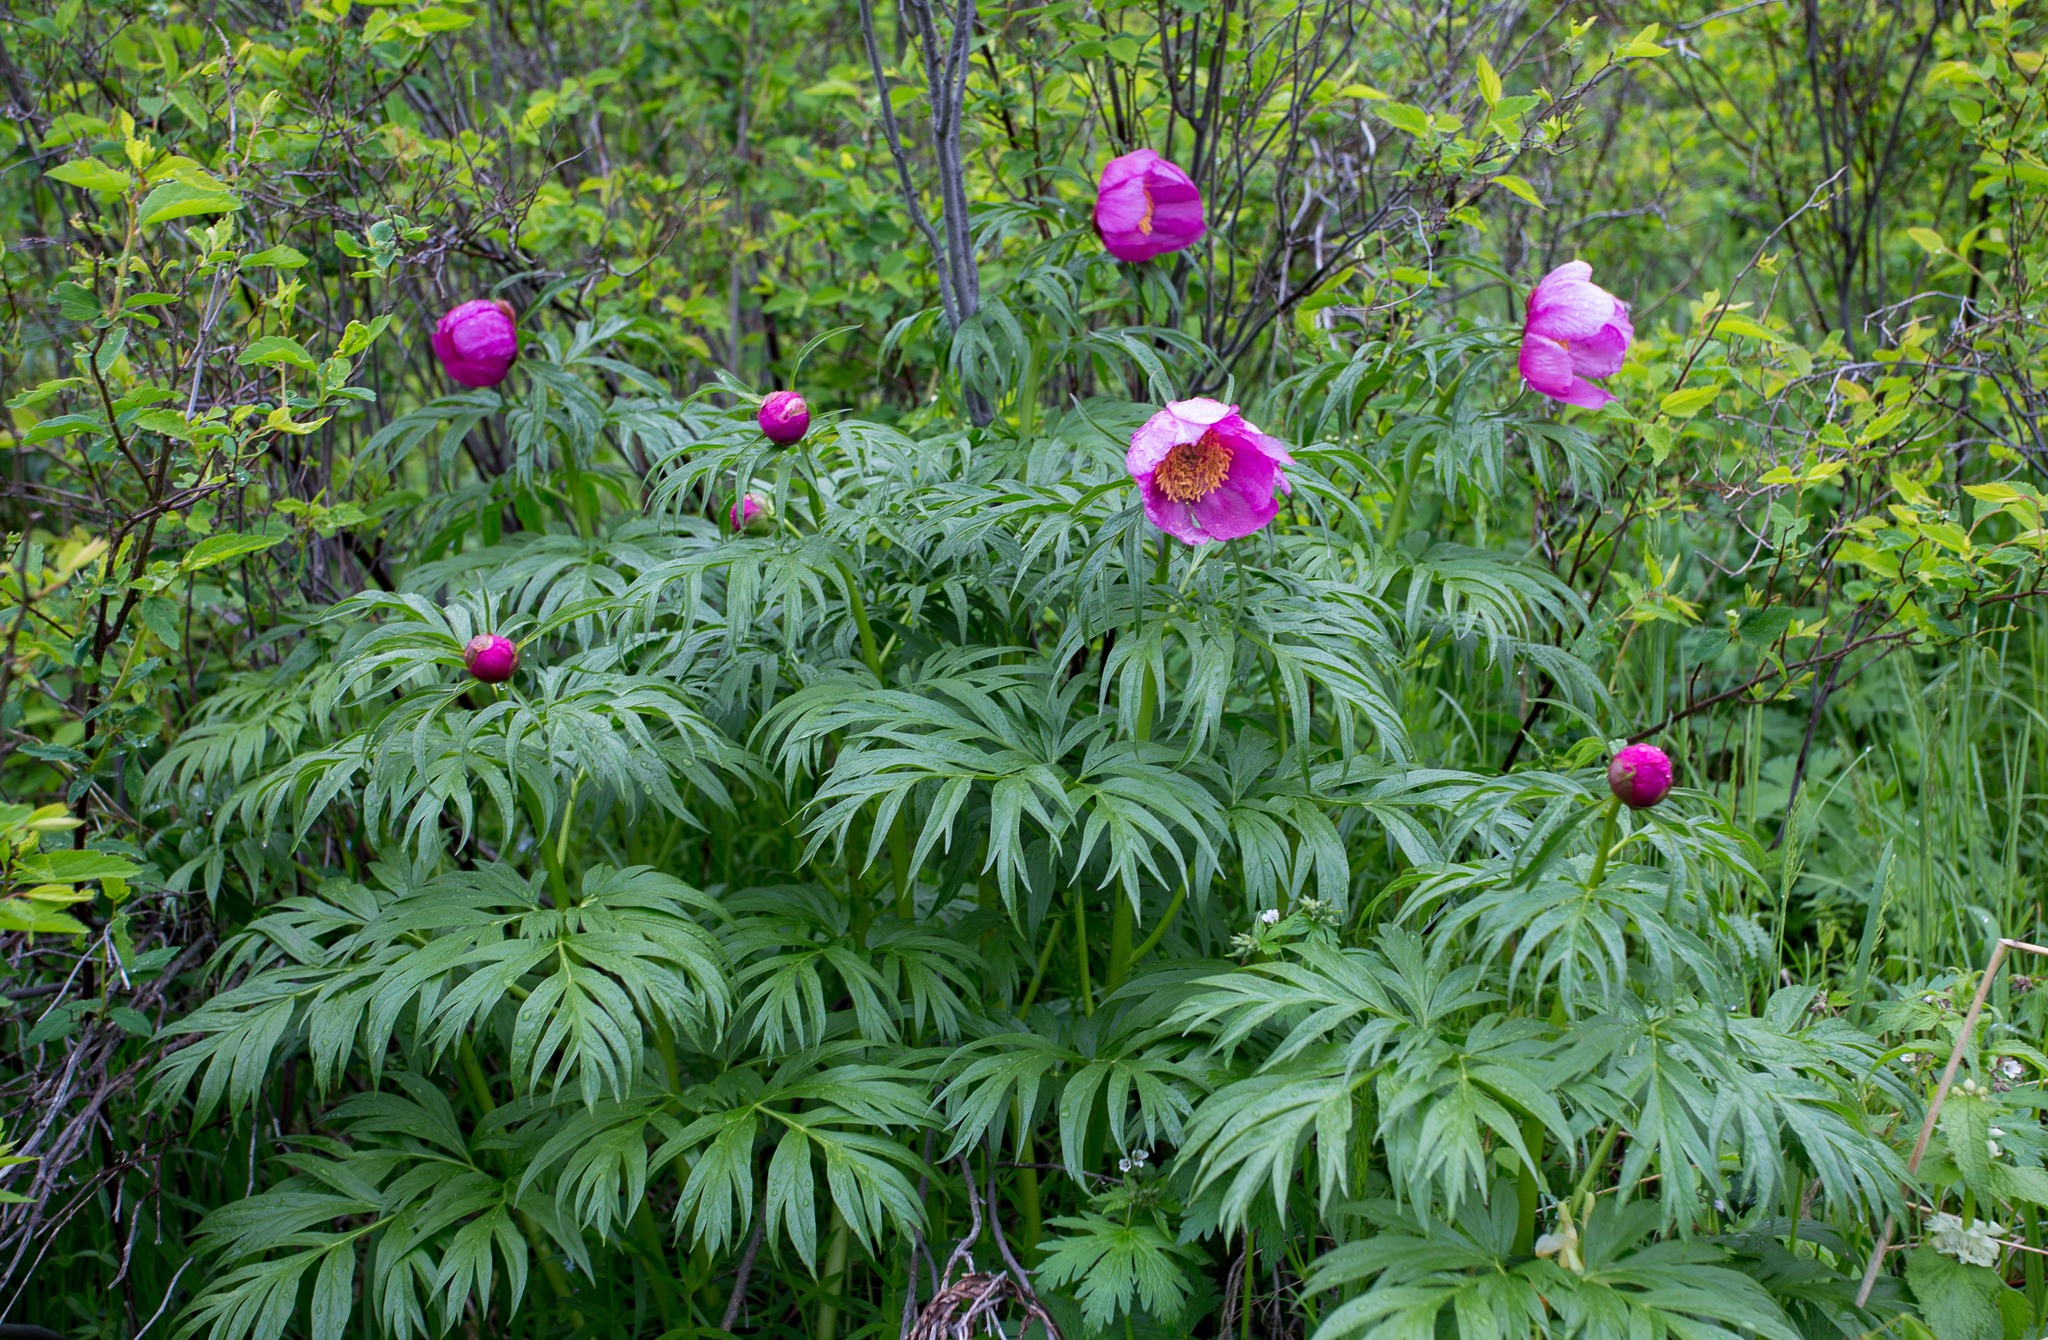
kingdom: Plantae
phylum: Tracheophyta
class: Magnoliopsida
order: Saxifragales
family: Paeoniaceae
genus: Paeonia
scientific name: Paeonia anomala
